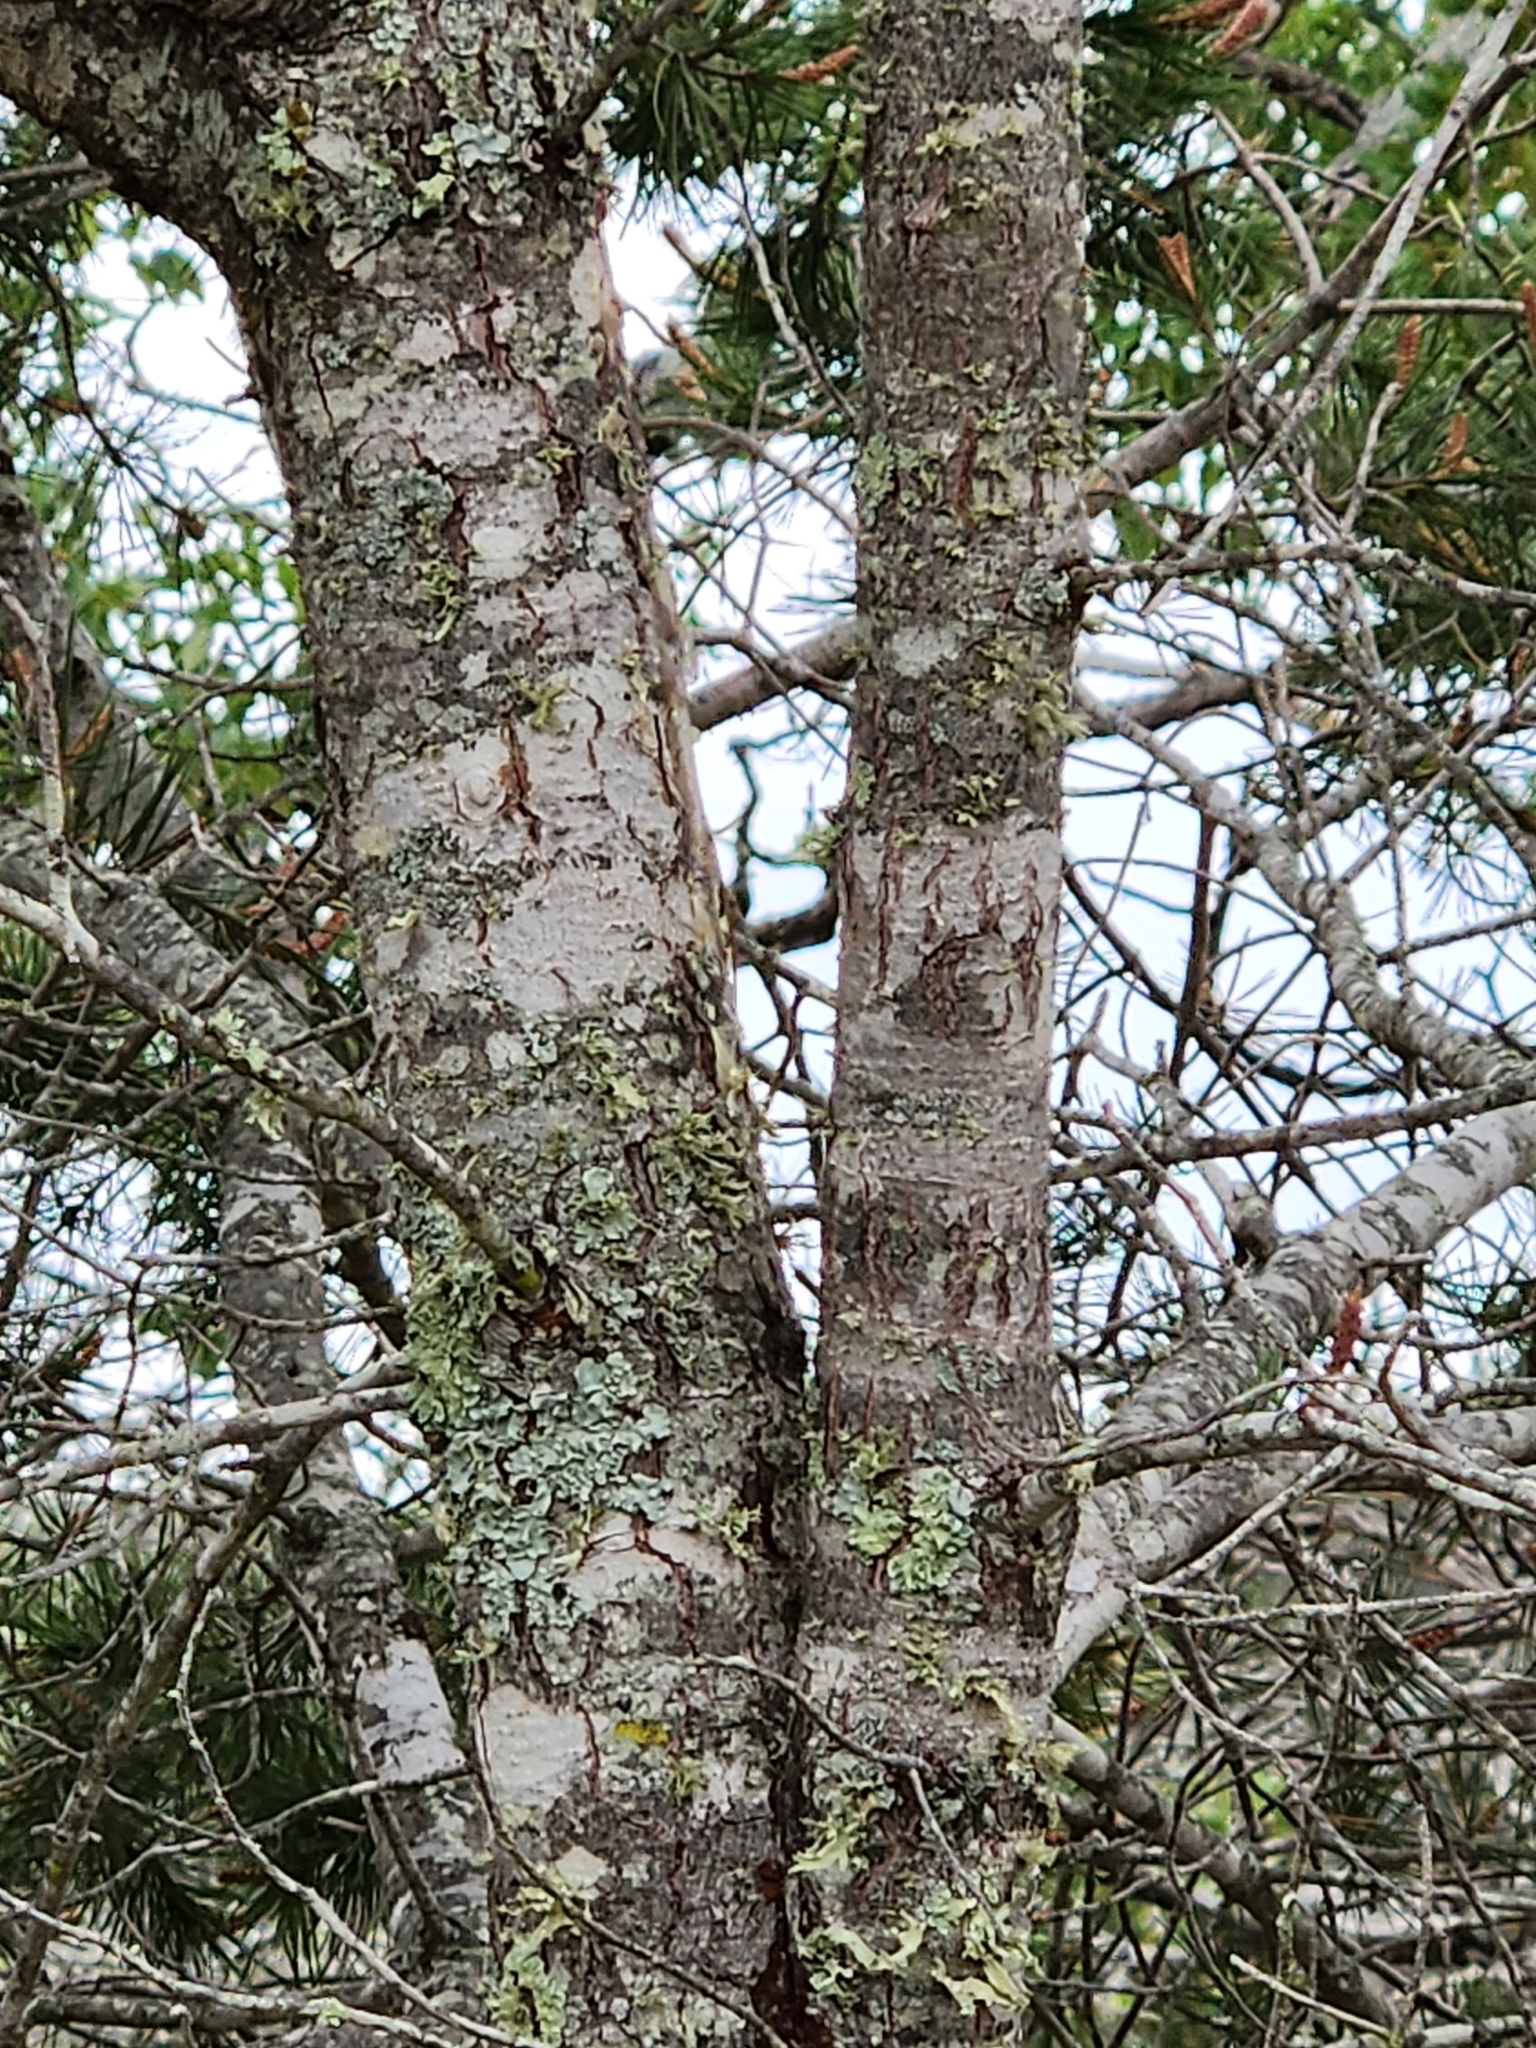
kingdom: Plantae
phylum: Tracheophyta
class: Pinopsida
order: Pinales
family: Pinaceae
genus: Pinus
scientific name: Pinus remota
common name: Nut pine
